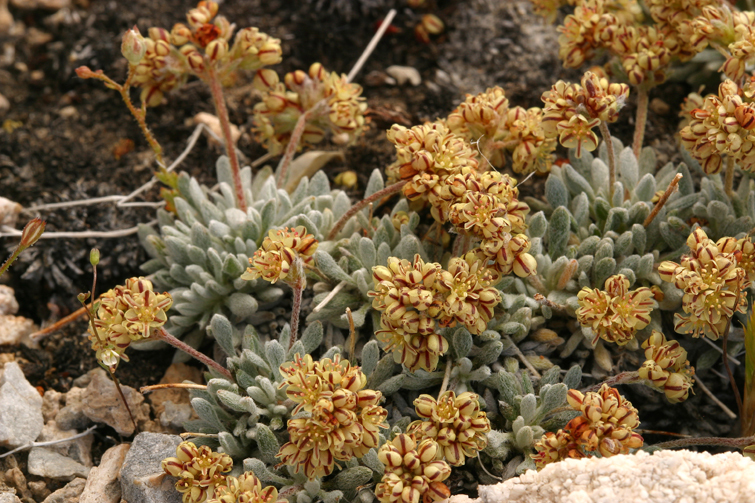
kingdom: Plantae
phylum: Tracheophyta
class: Magnoliopsida
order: Caryophyllales
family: Polygonaceae
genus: Eriogonum
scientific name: Eriogonum gilmanii
